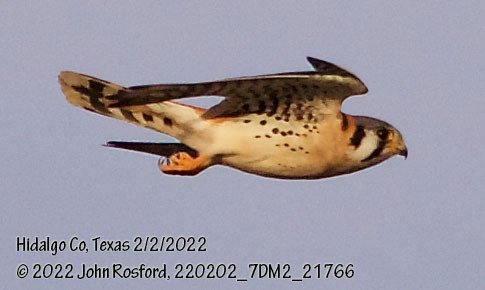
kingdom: Animalia
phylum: Chordata
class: Aves
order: Falconiformes
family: Falconidae
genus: Falco
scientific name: Falco sparverius
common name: American kestrel
